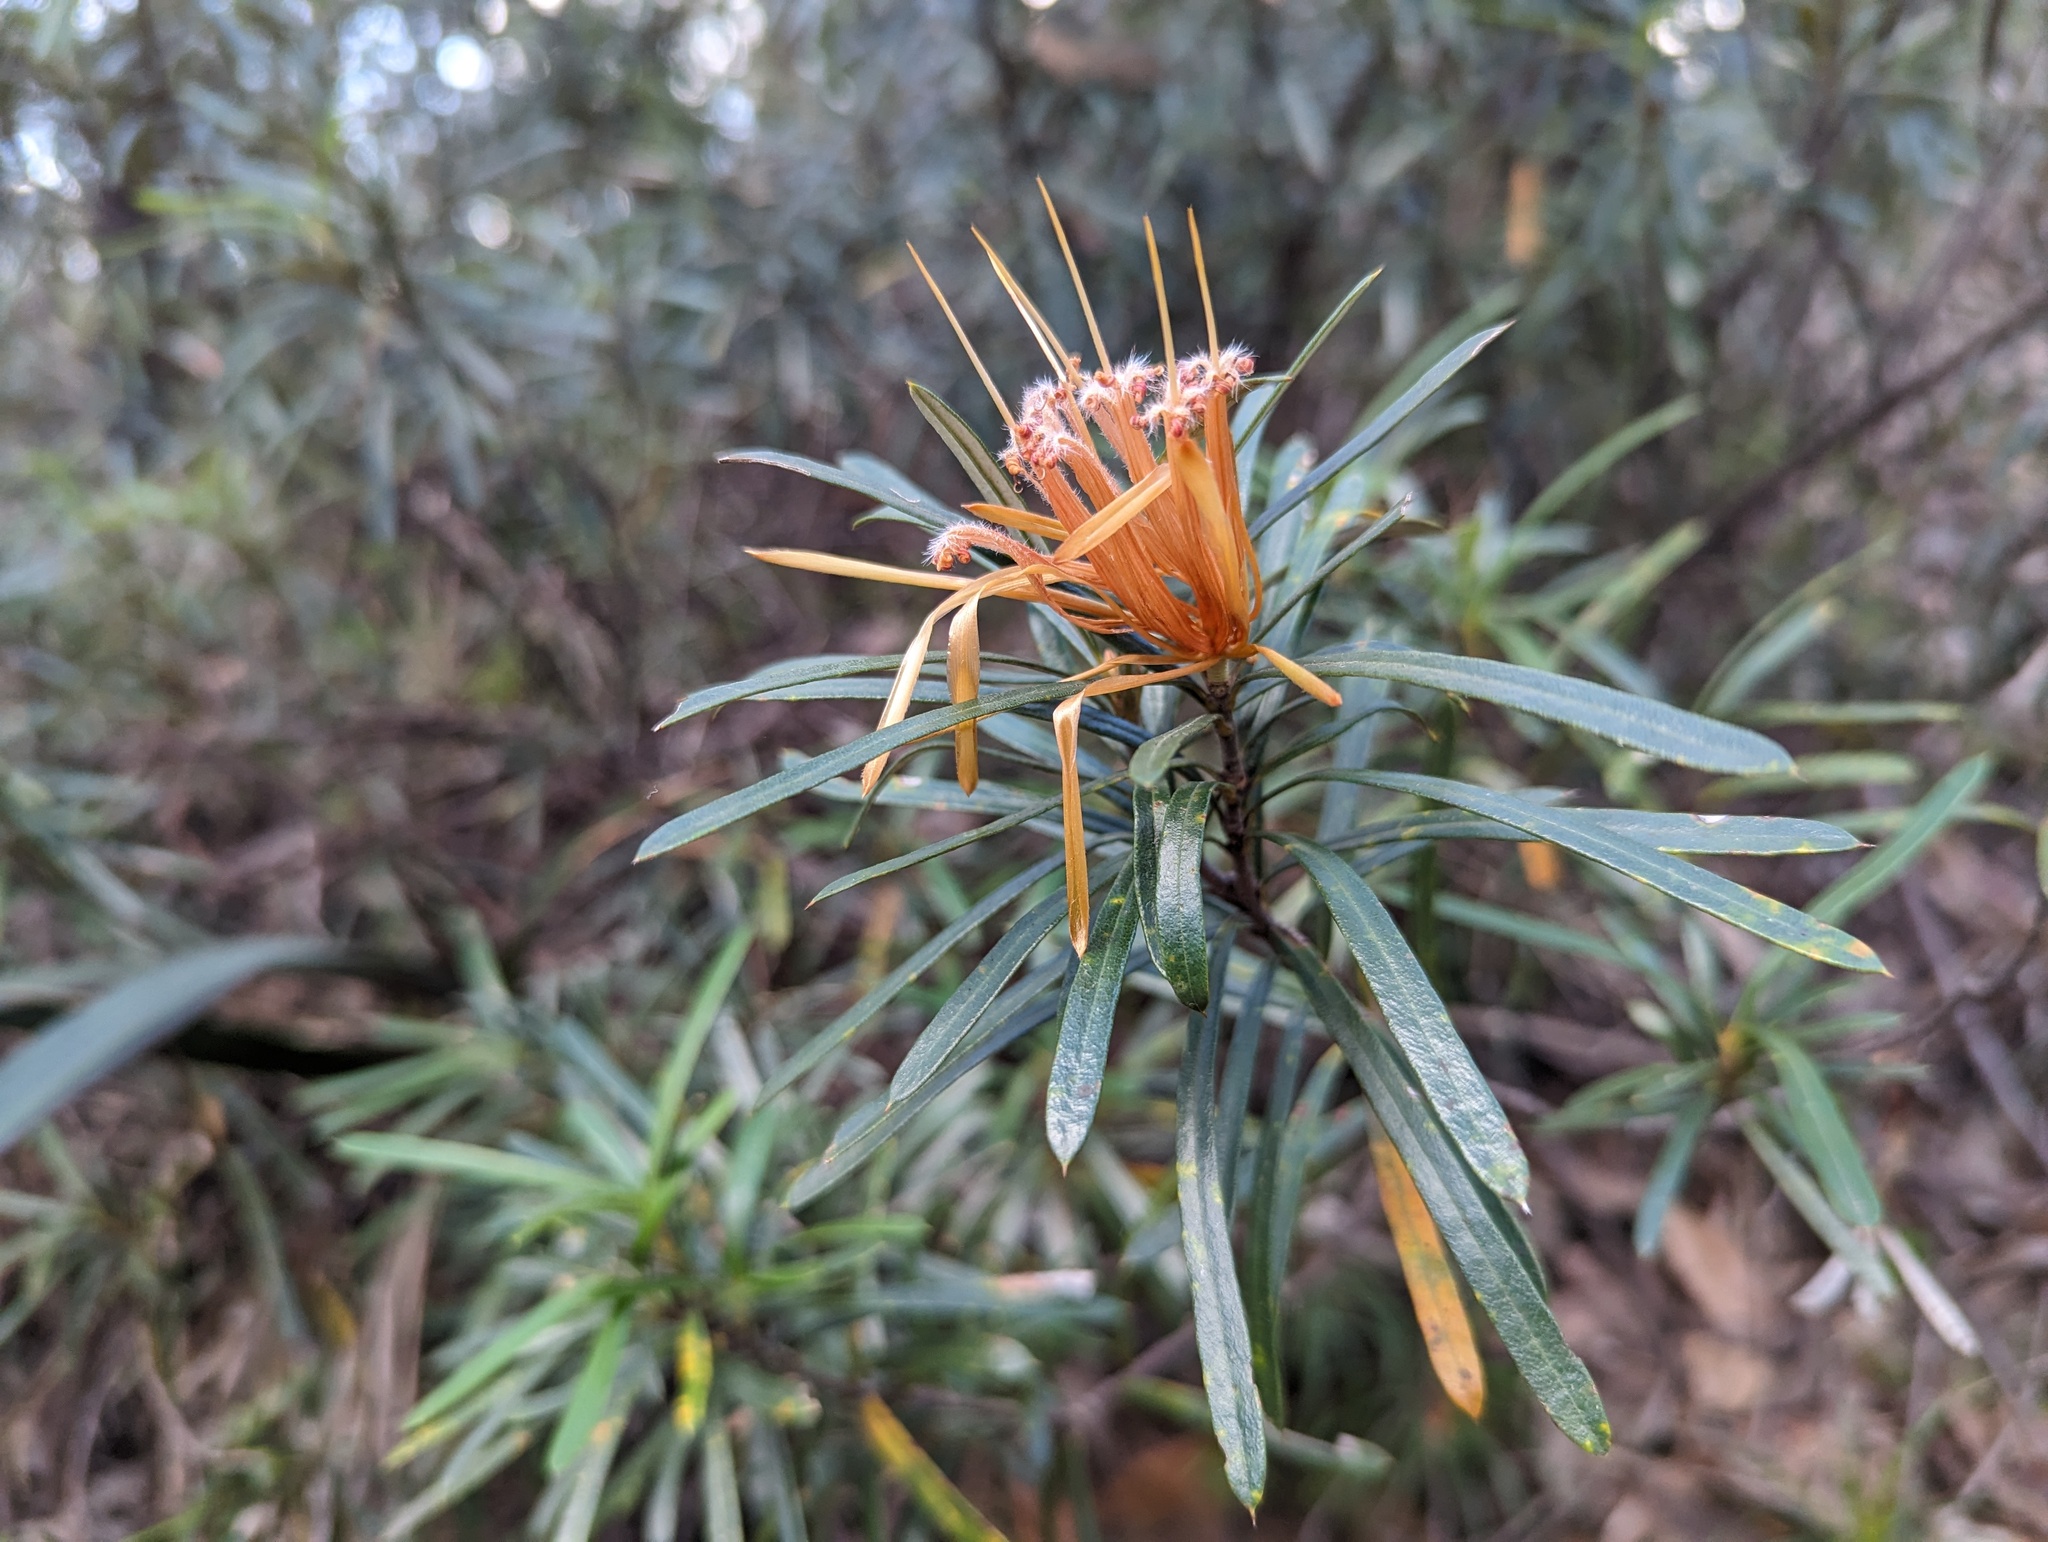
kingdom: Plantae
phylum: Tracheophyta
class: Magnoliopsida
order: Proteales
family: Proteaceae
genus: Lambertia
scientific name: Lambertia formosa
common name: Mountain-devil
